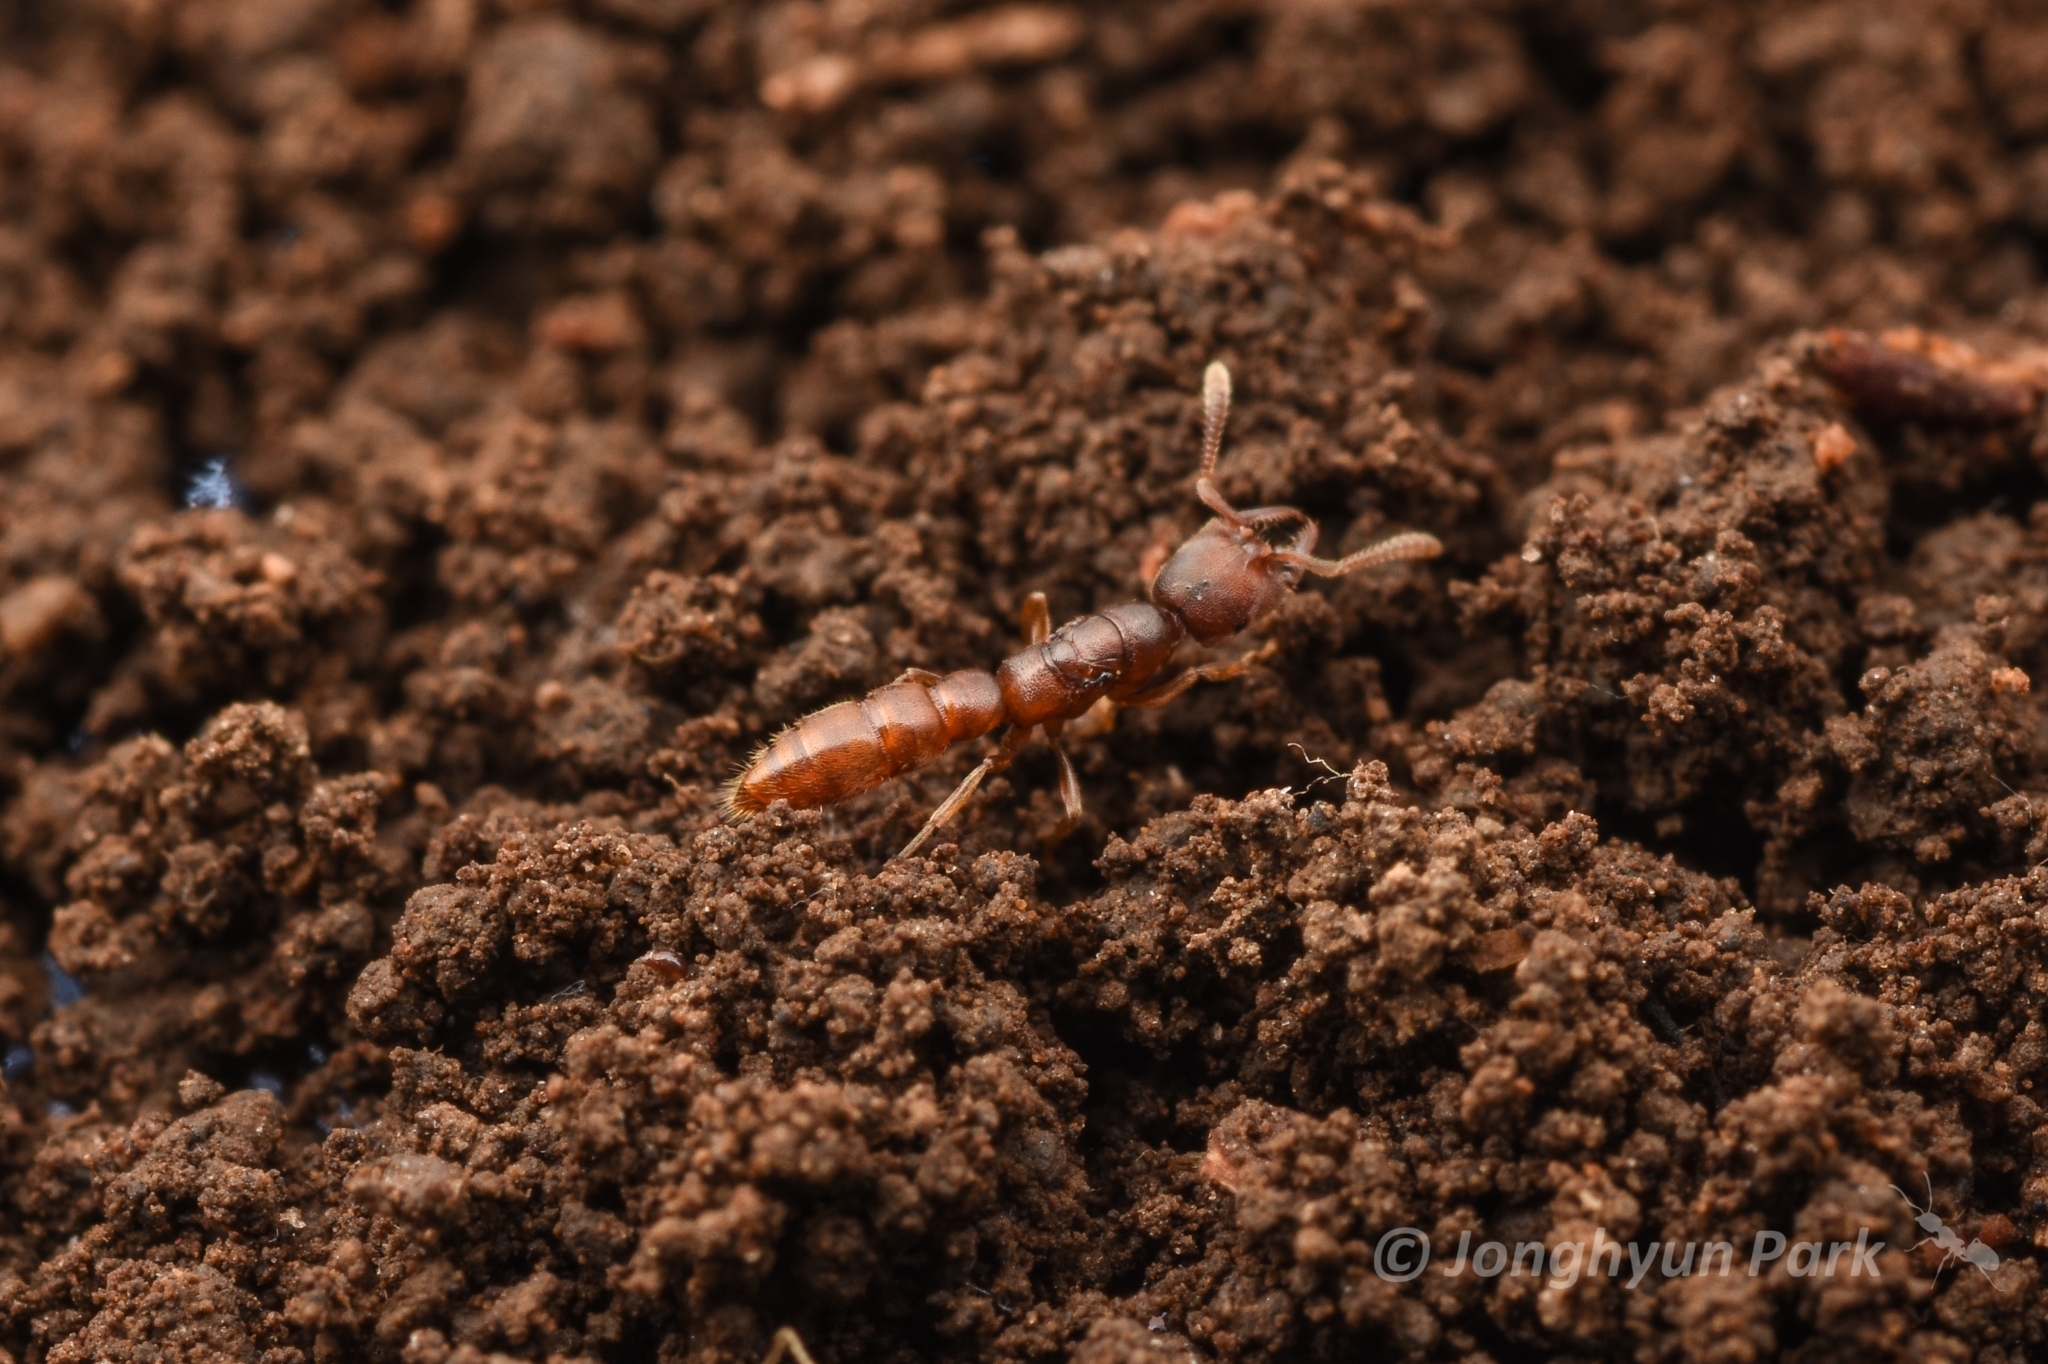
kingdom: Animalia
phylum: Arthropoda
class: Insecta
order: Hymenoptera
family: Formicidae
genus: Stigmatomma
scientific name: Stigmatomma silvestrii
